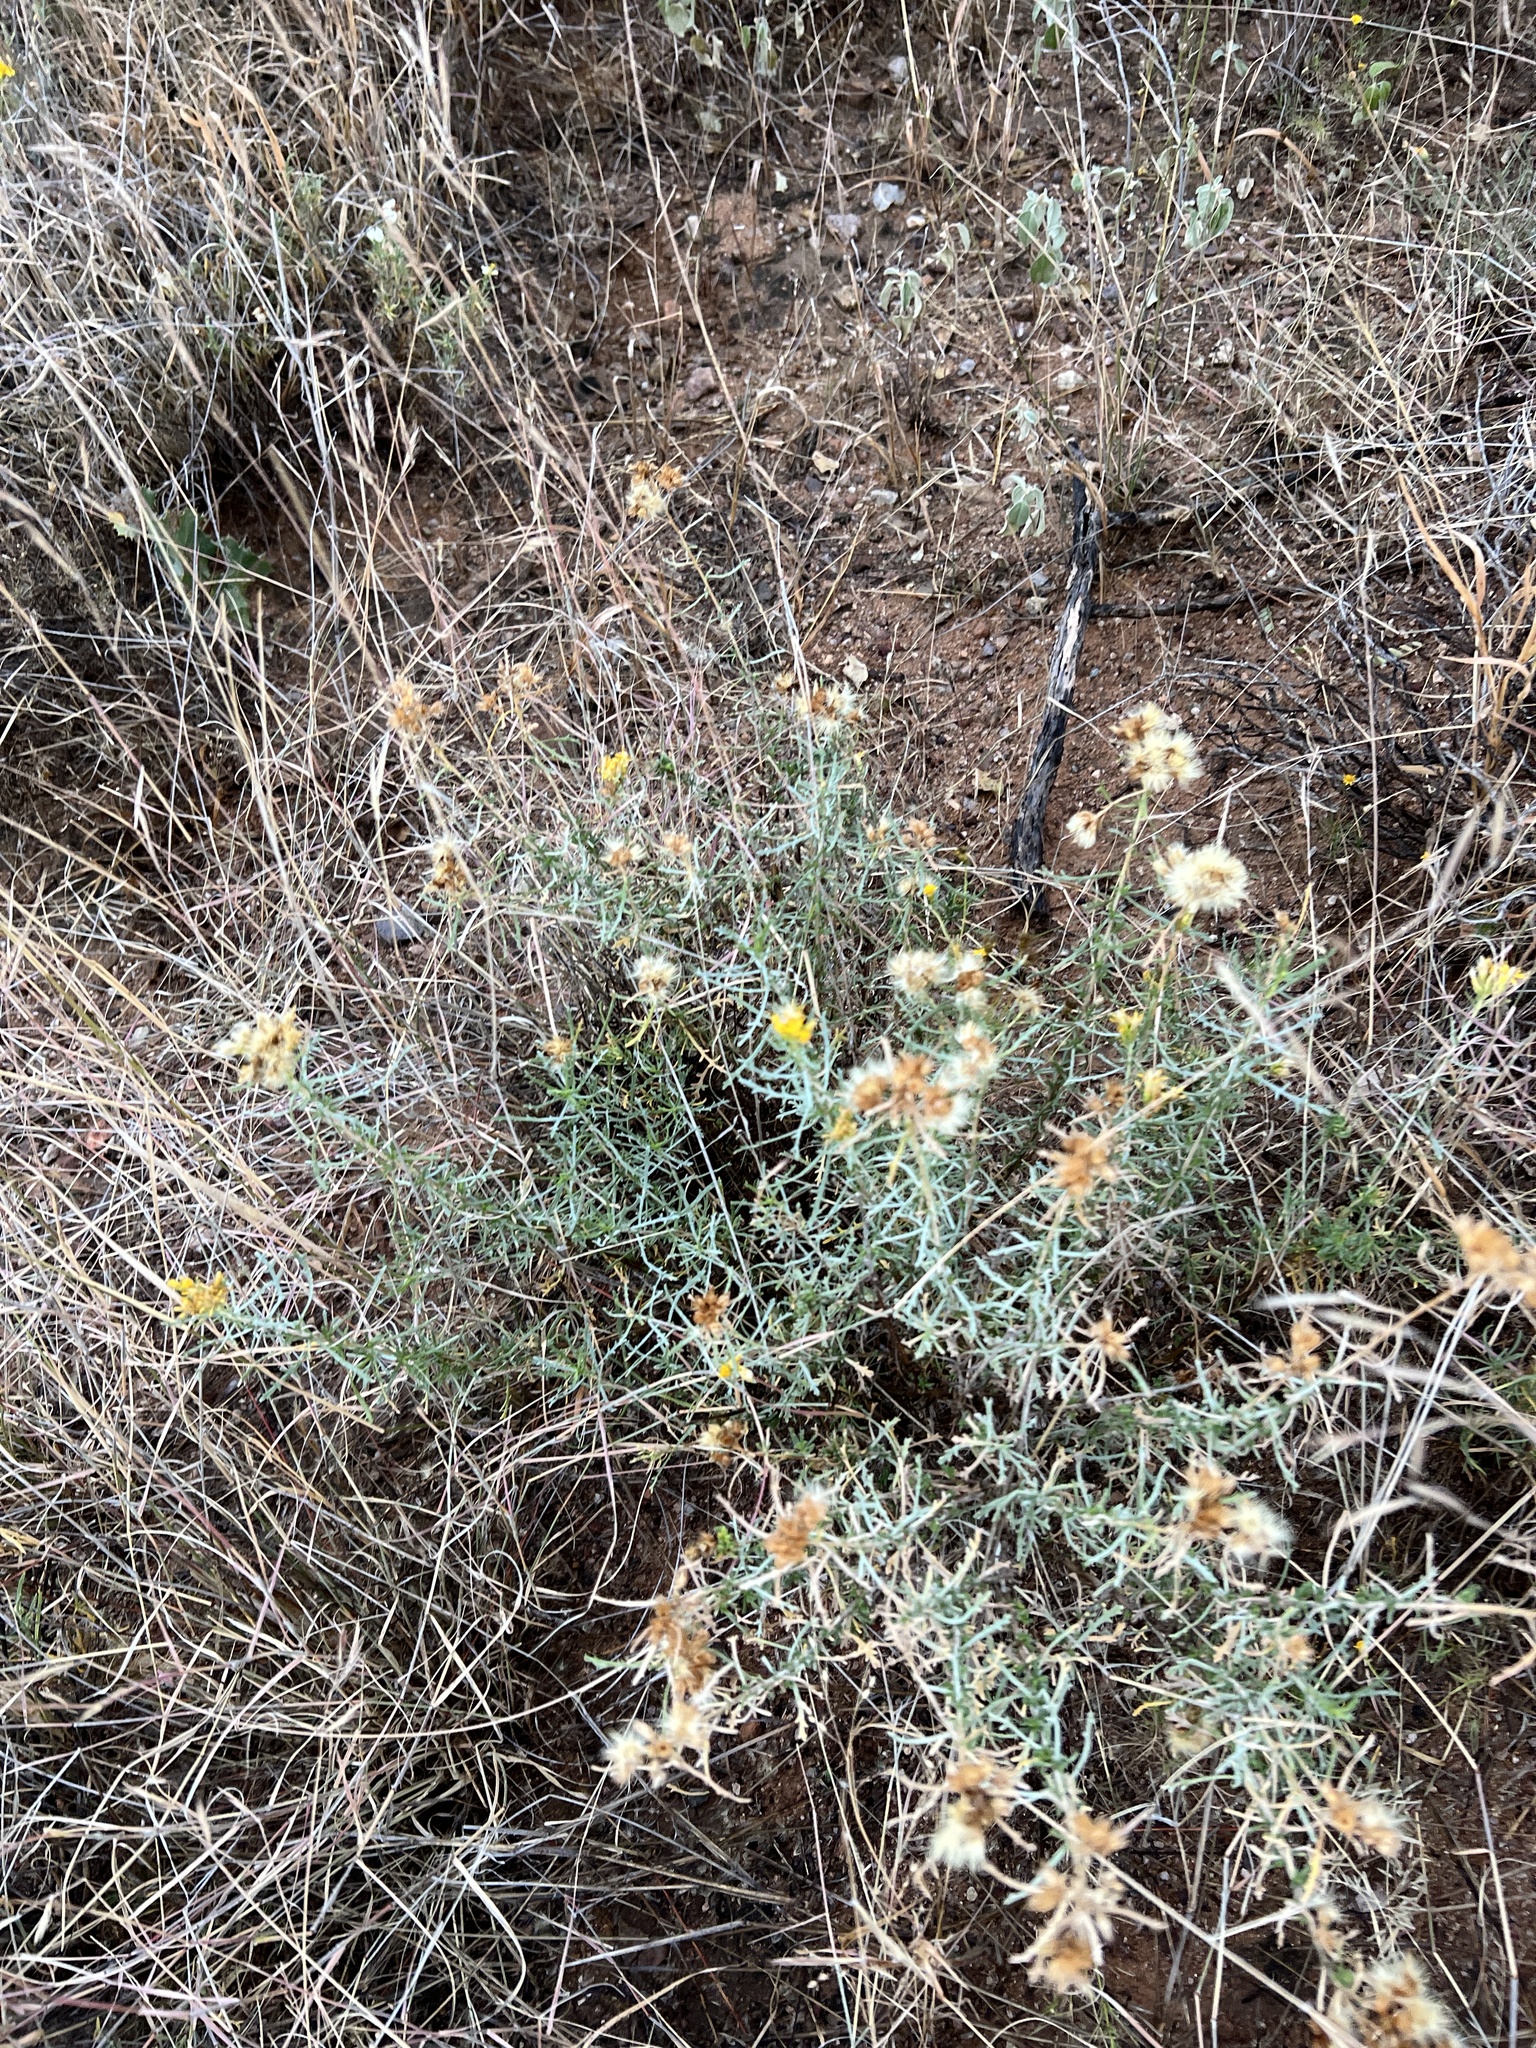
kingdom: Plantae
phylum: Tracheophyta
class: Magnoliopsida
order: Asterales
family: Asteraceae
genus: Isocoma
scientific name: Isocoma tenuisecta
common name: Burroweed
